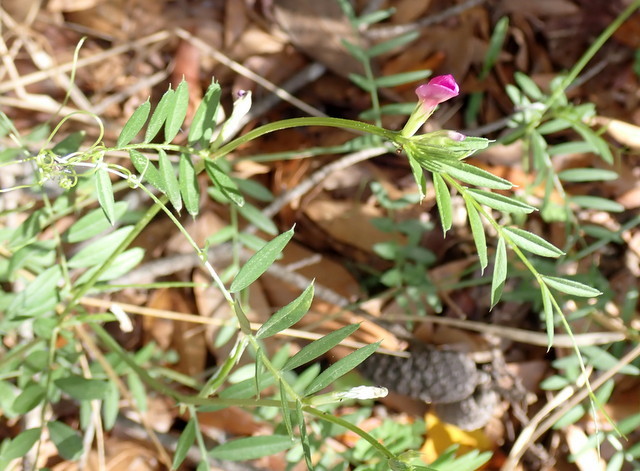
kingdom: Plantae
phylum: Tracheophyta
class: Magnoliopsida
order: Fabales
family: Fabaceae
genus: Vicia
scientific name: Vicia sativa
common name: Garden vetch
